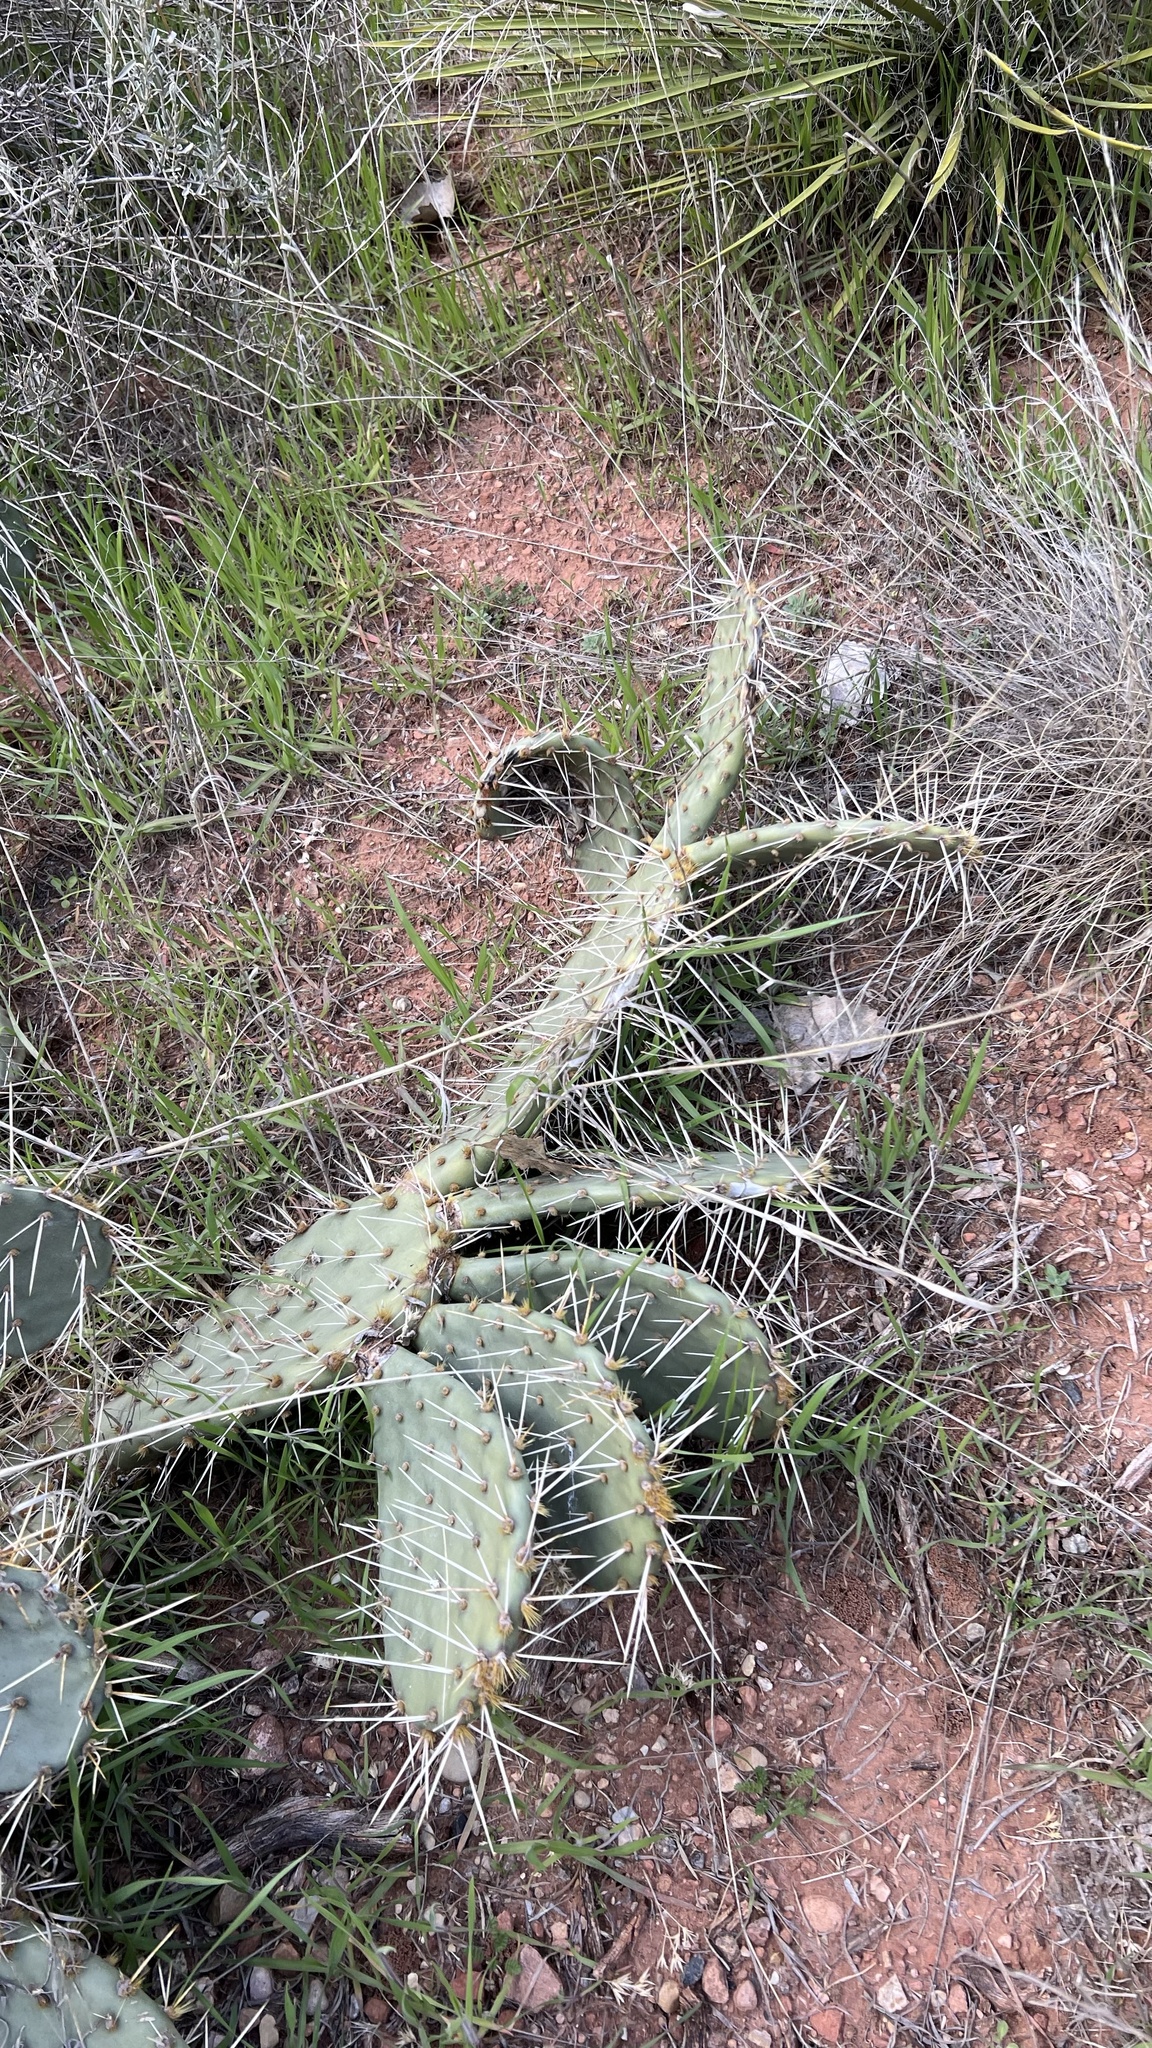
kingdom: Plantae
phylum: Tracheophyta
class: Magnoliopsida
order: Caryophyllales
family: Cactaceae
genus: Opuntia
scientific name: Opuntia phaeacantha
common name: New mexico prickly-pear
